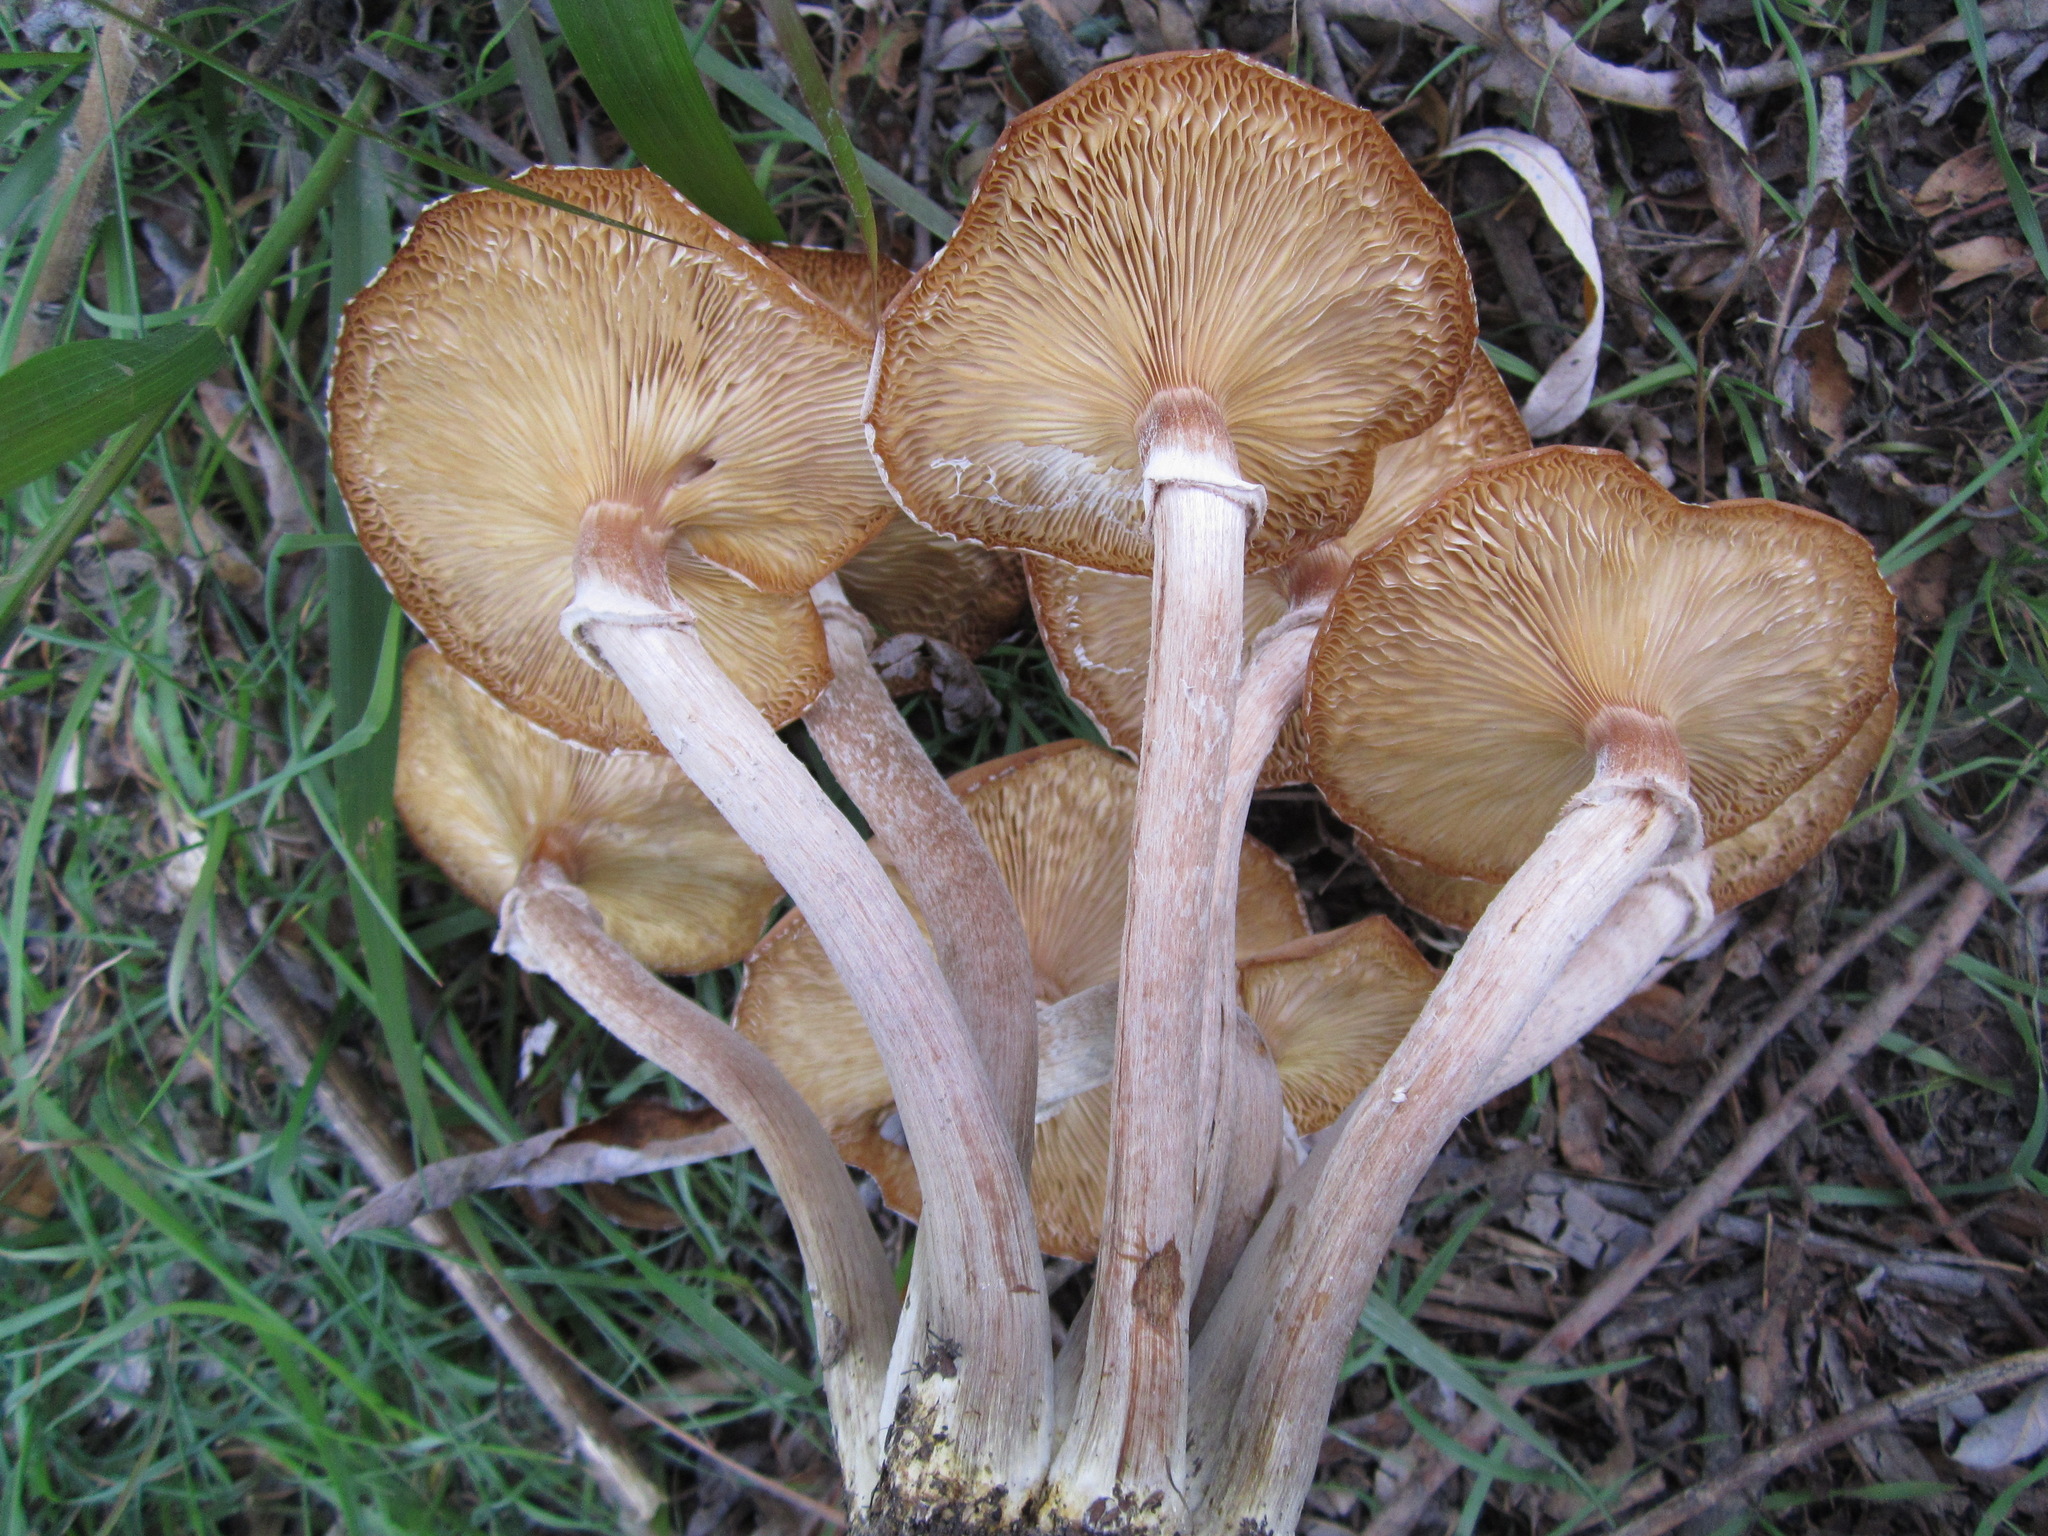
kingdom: Fungi
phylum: Basidiomycota
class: Agaricomycetes
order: Agaricales
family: Physalacriaceae
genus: Armillaria
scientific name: Armillaria mellea
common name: Honey fungus
